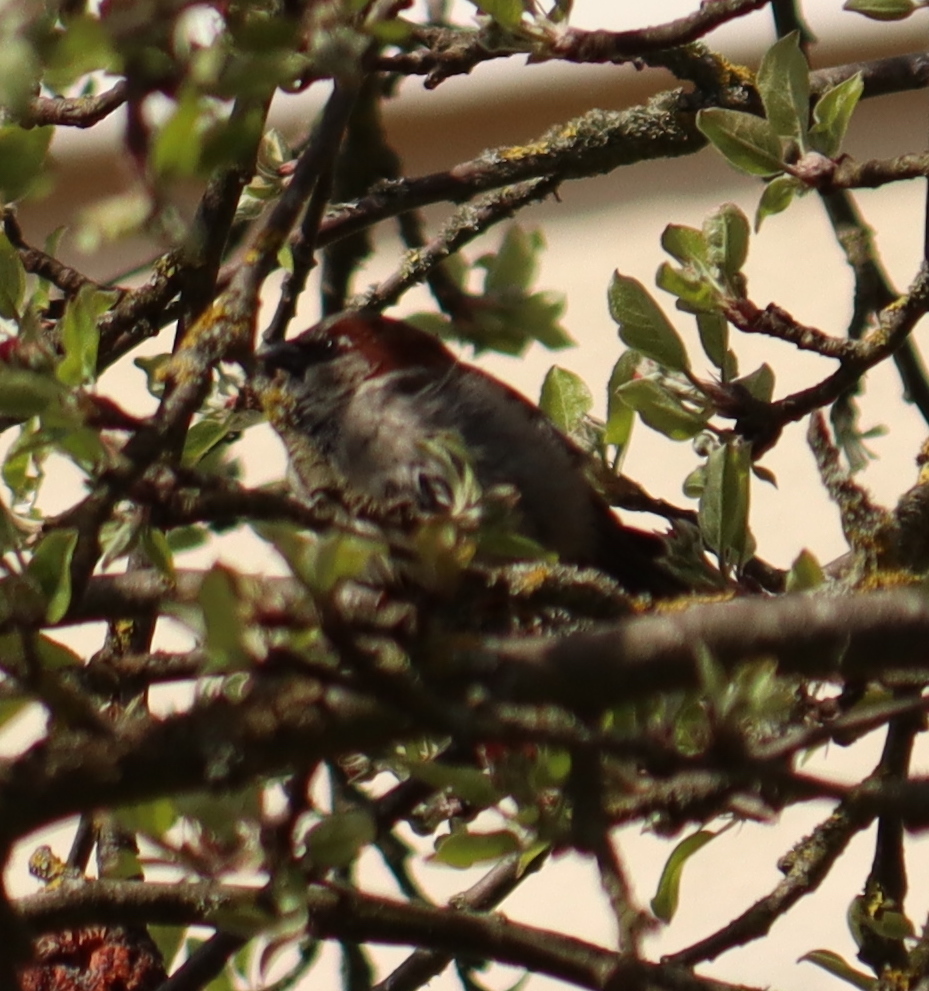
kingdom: Animalia
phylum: Chordata
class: Aves
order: Passeriformes
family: Passeridae
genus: Passer
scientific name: Passer domesticus
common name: House sparrow
